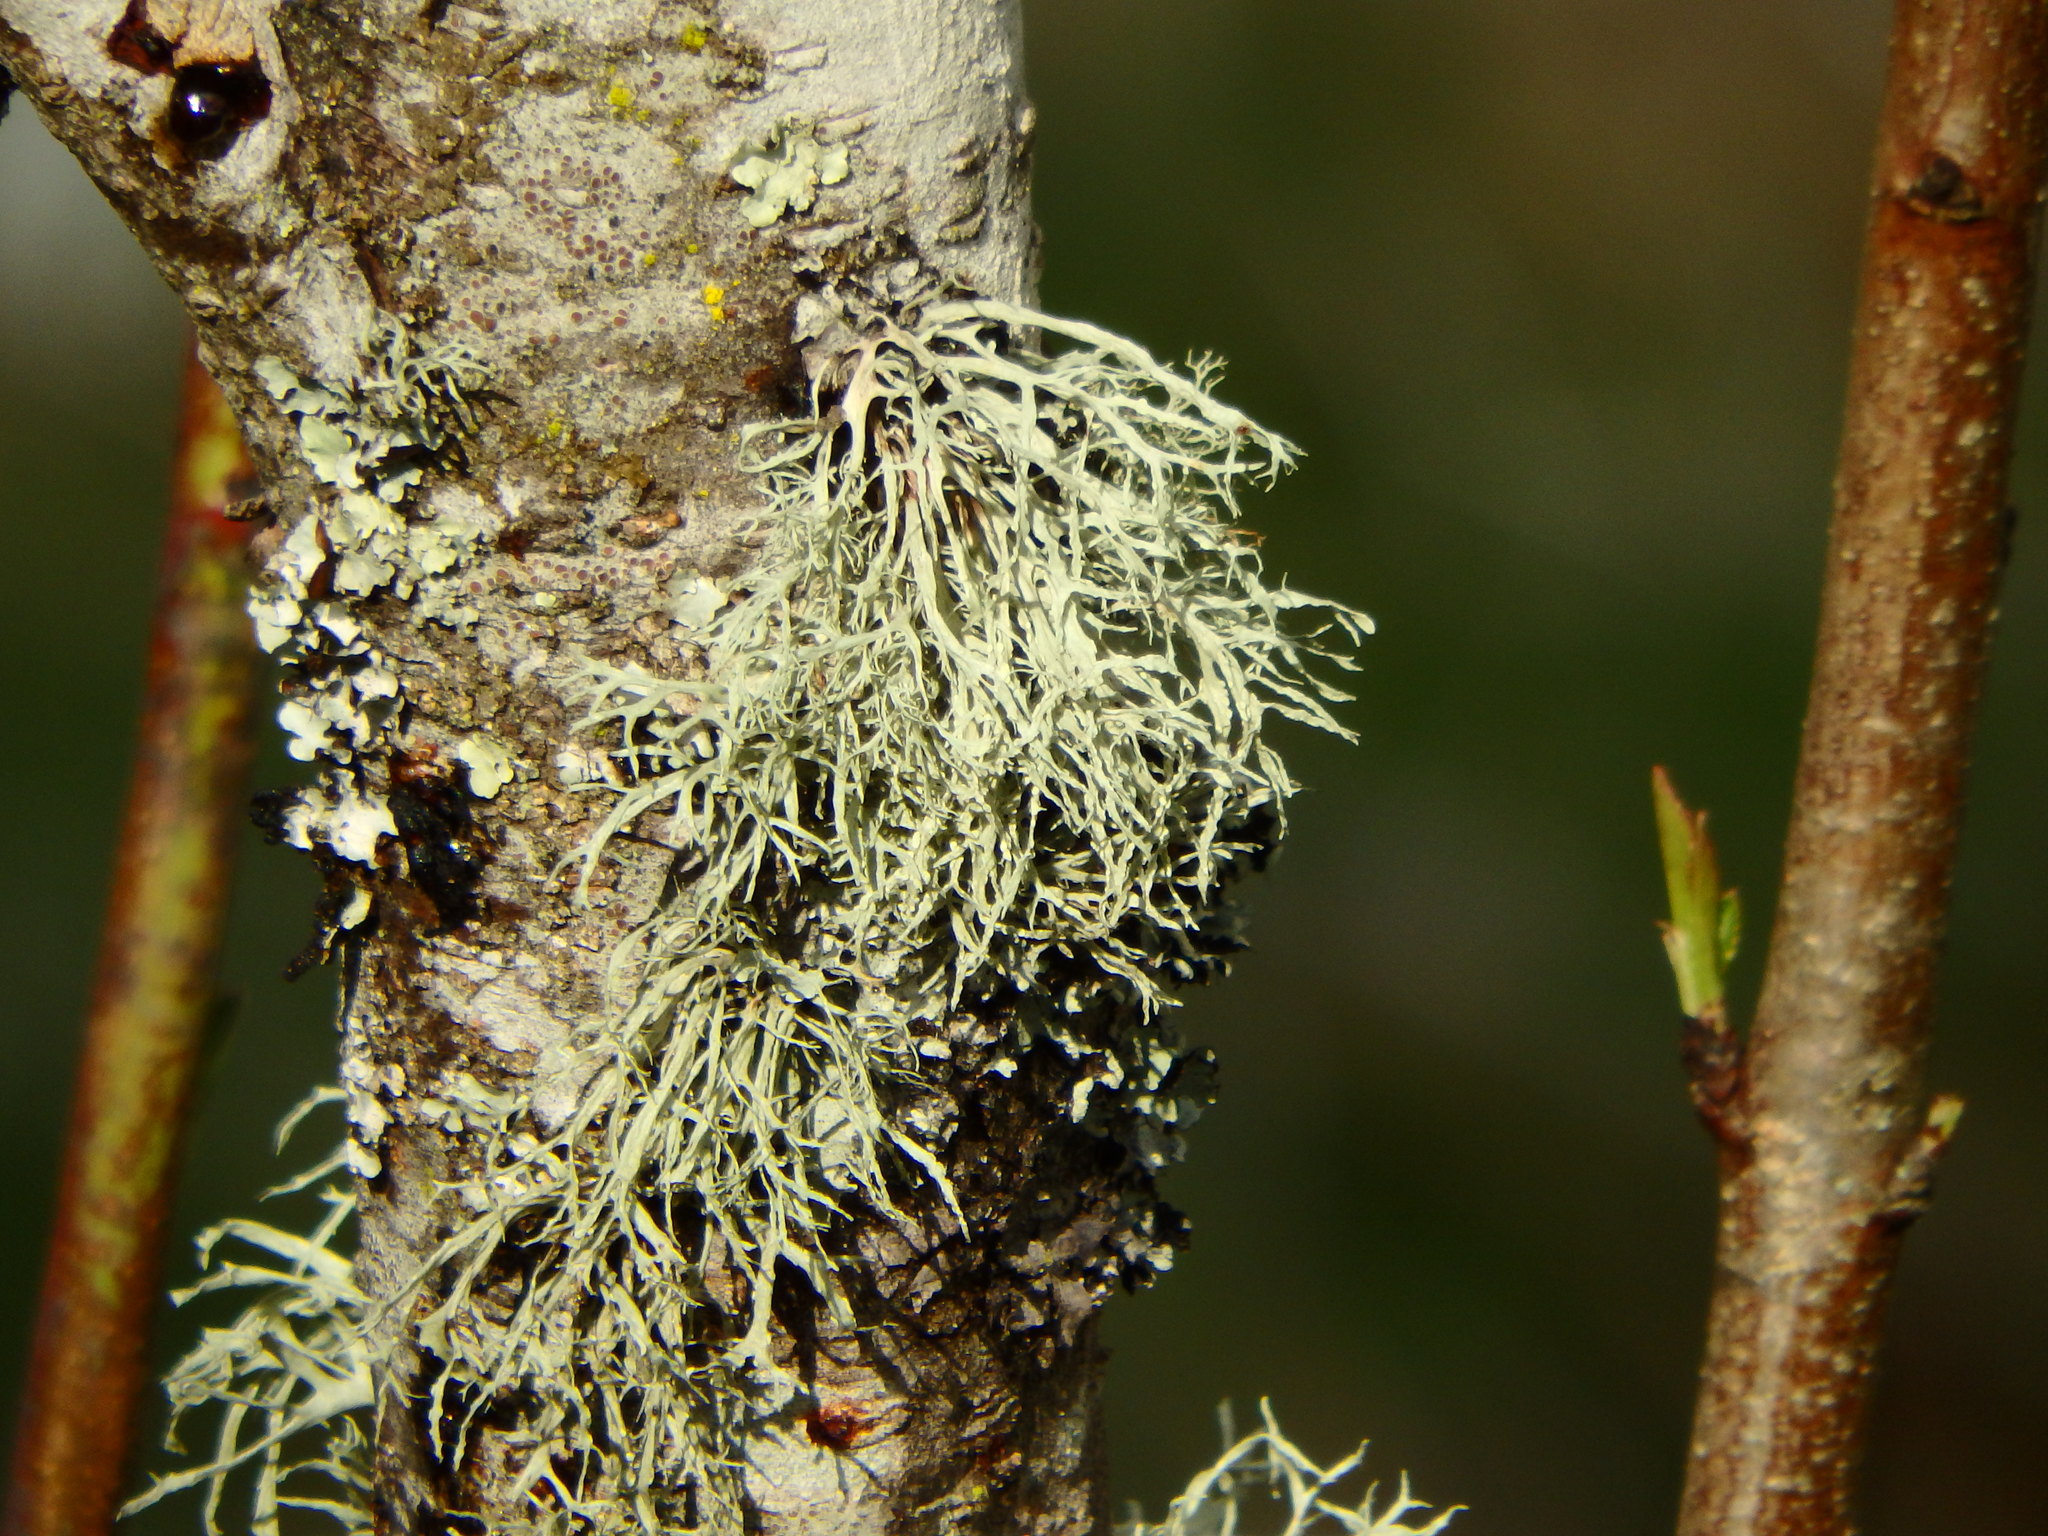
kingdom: Fungi
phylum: Ascomycota
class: Lecanoromycetes
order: Lecanorales
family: Ramalinaceae
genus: Ramalina
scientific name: Ramalina farinacea
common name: Farinose cartilage lichen
